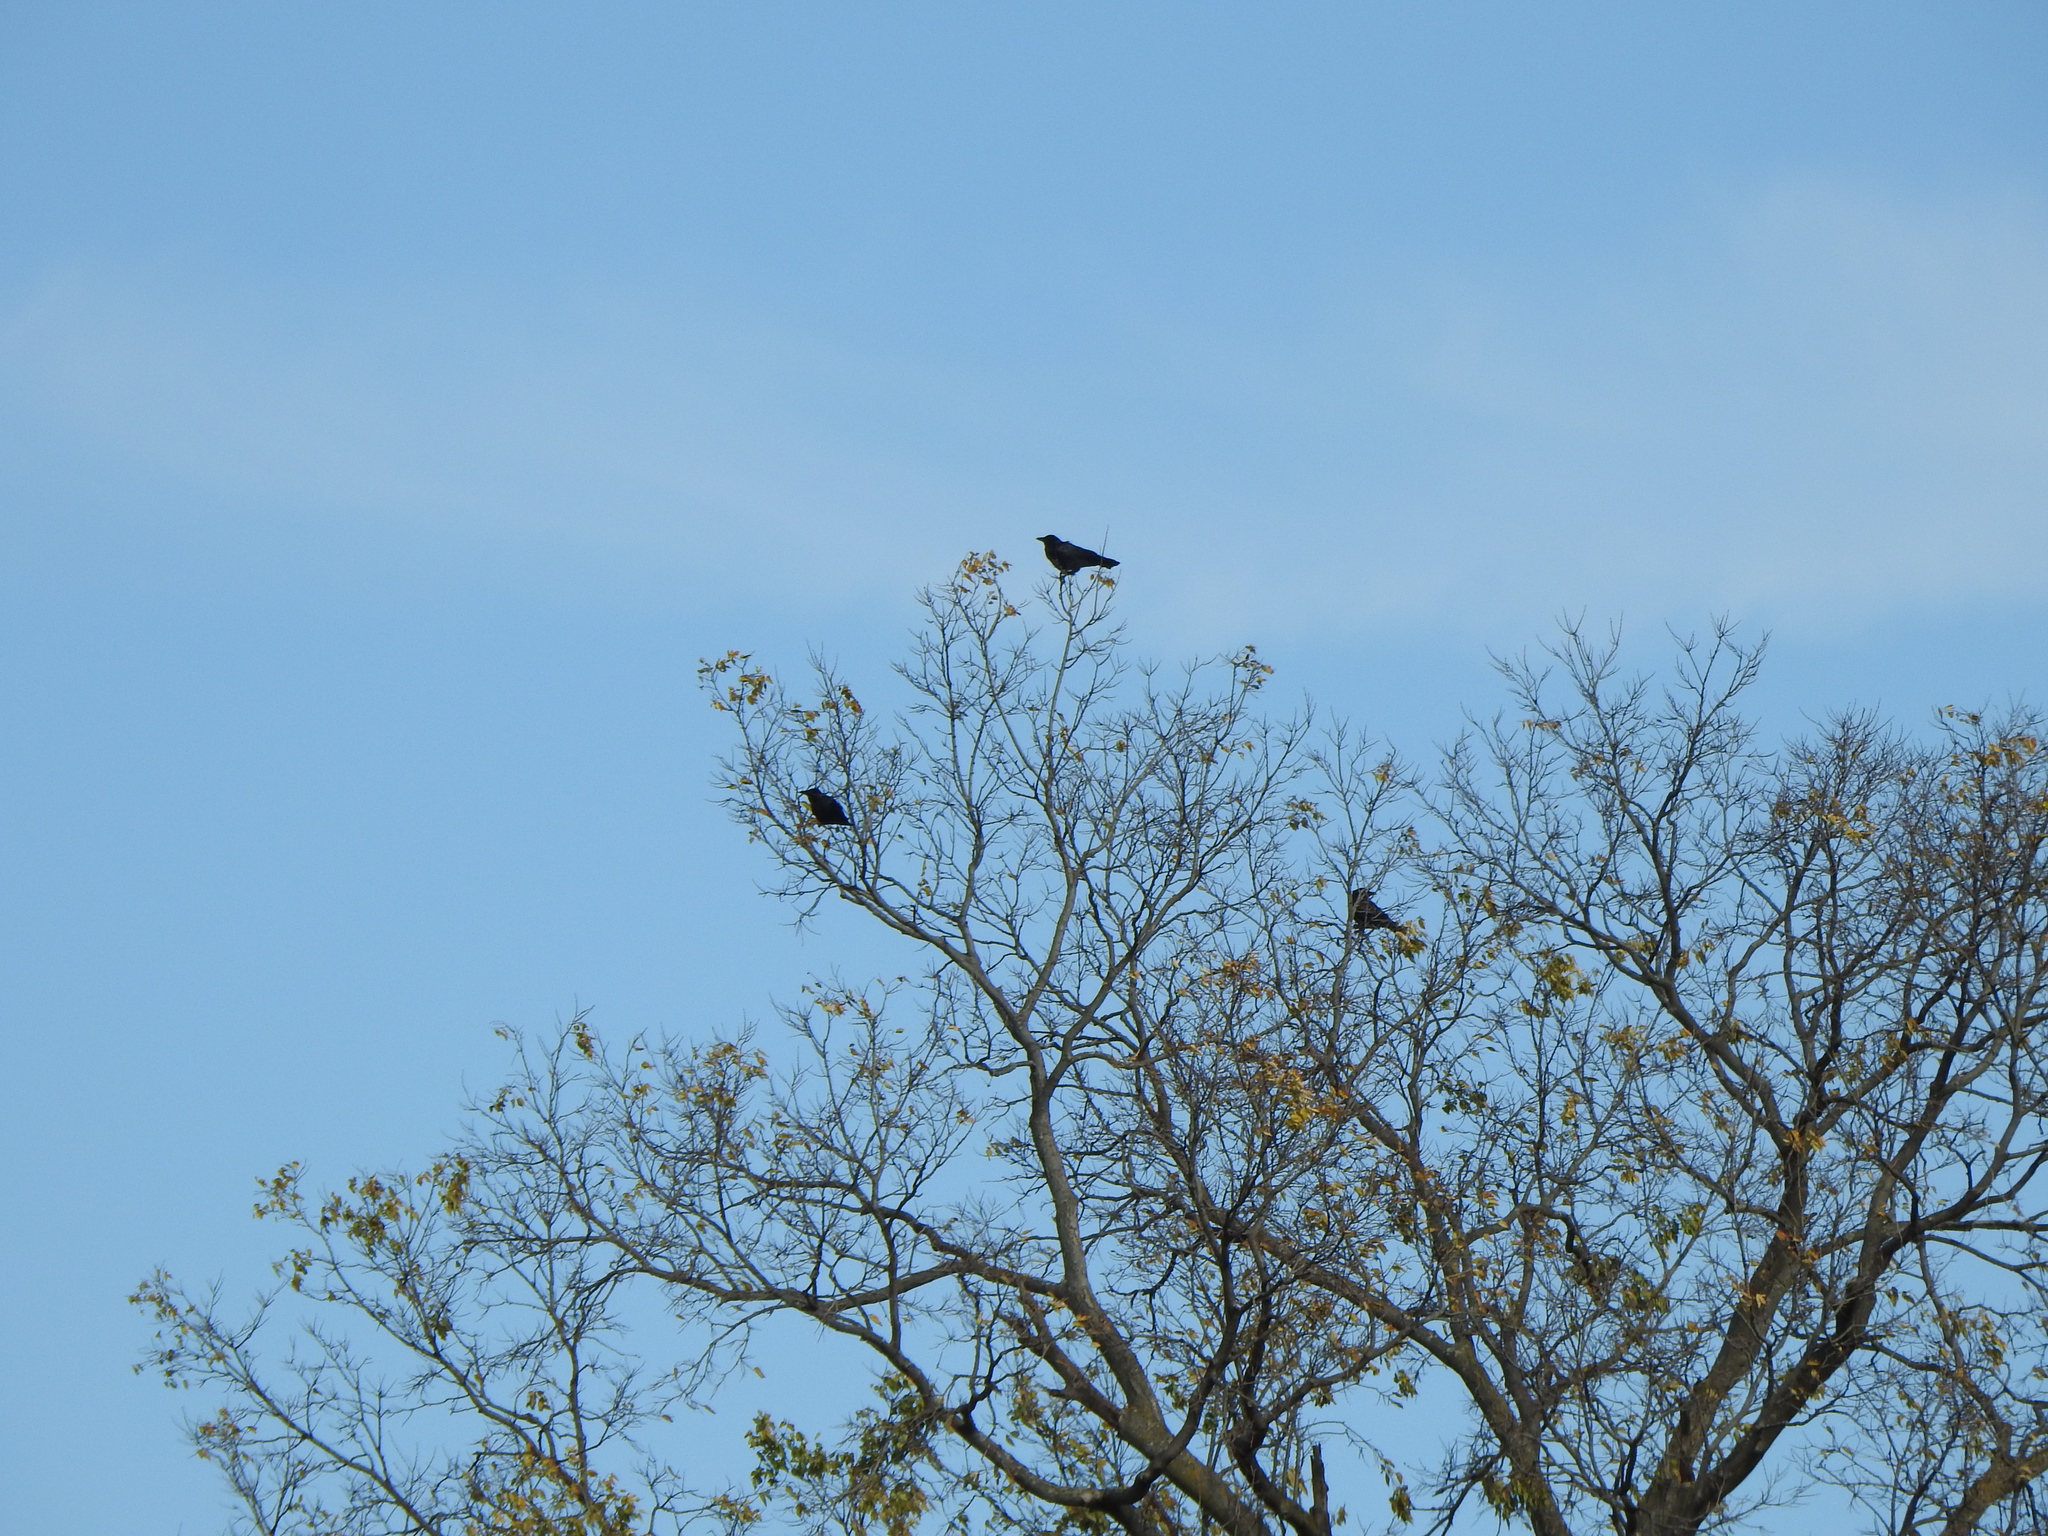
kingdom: Animalia
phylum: Chordata
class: Aves
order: Passeriformes
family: Corvidae
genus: Corvus
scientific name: Corvus brachyrhynchos
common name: American crow
